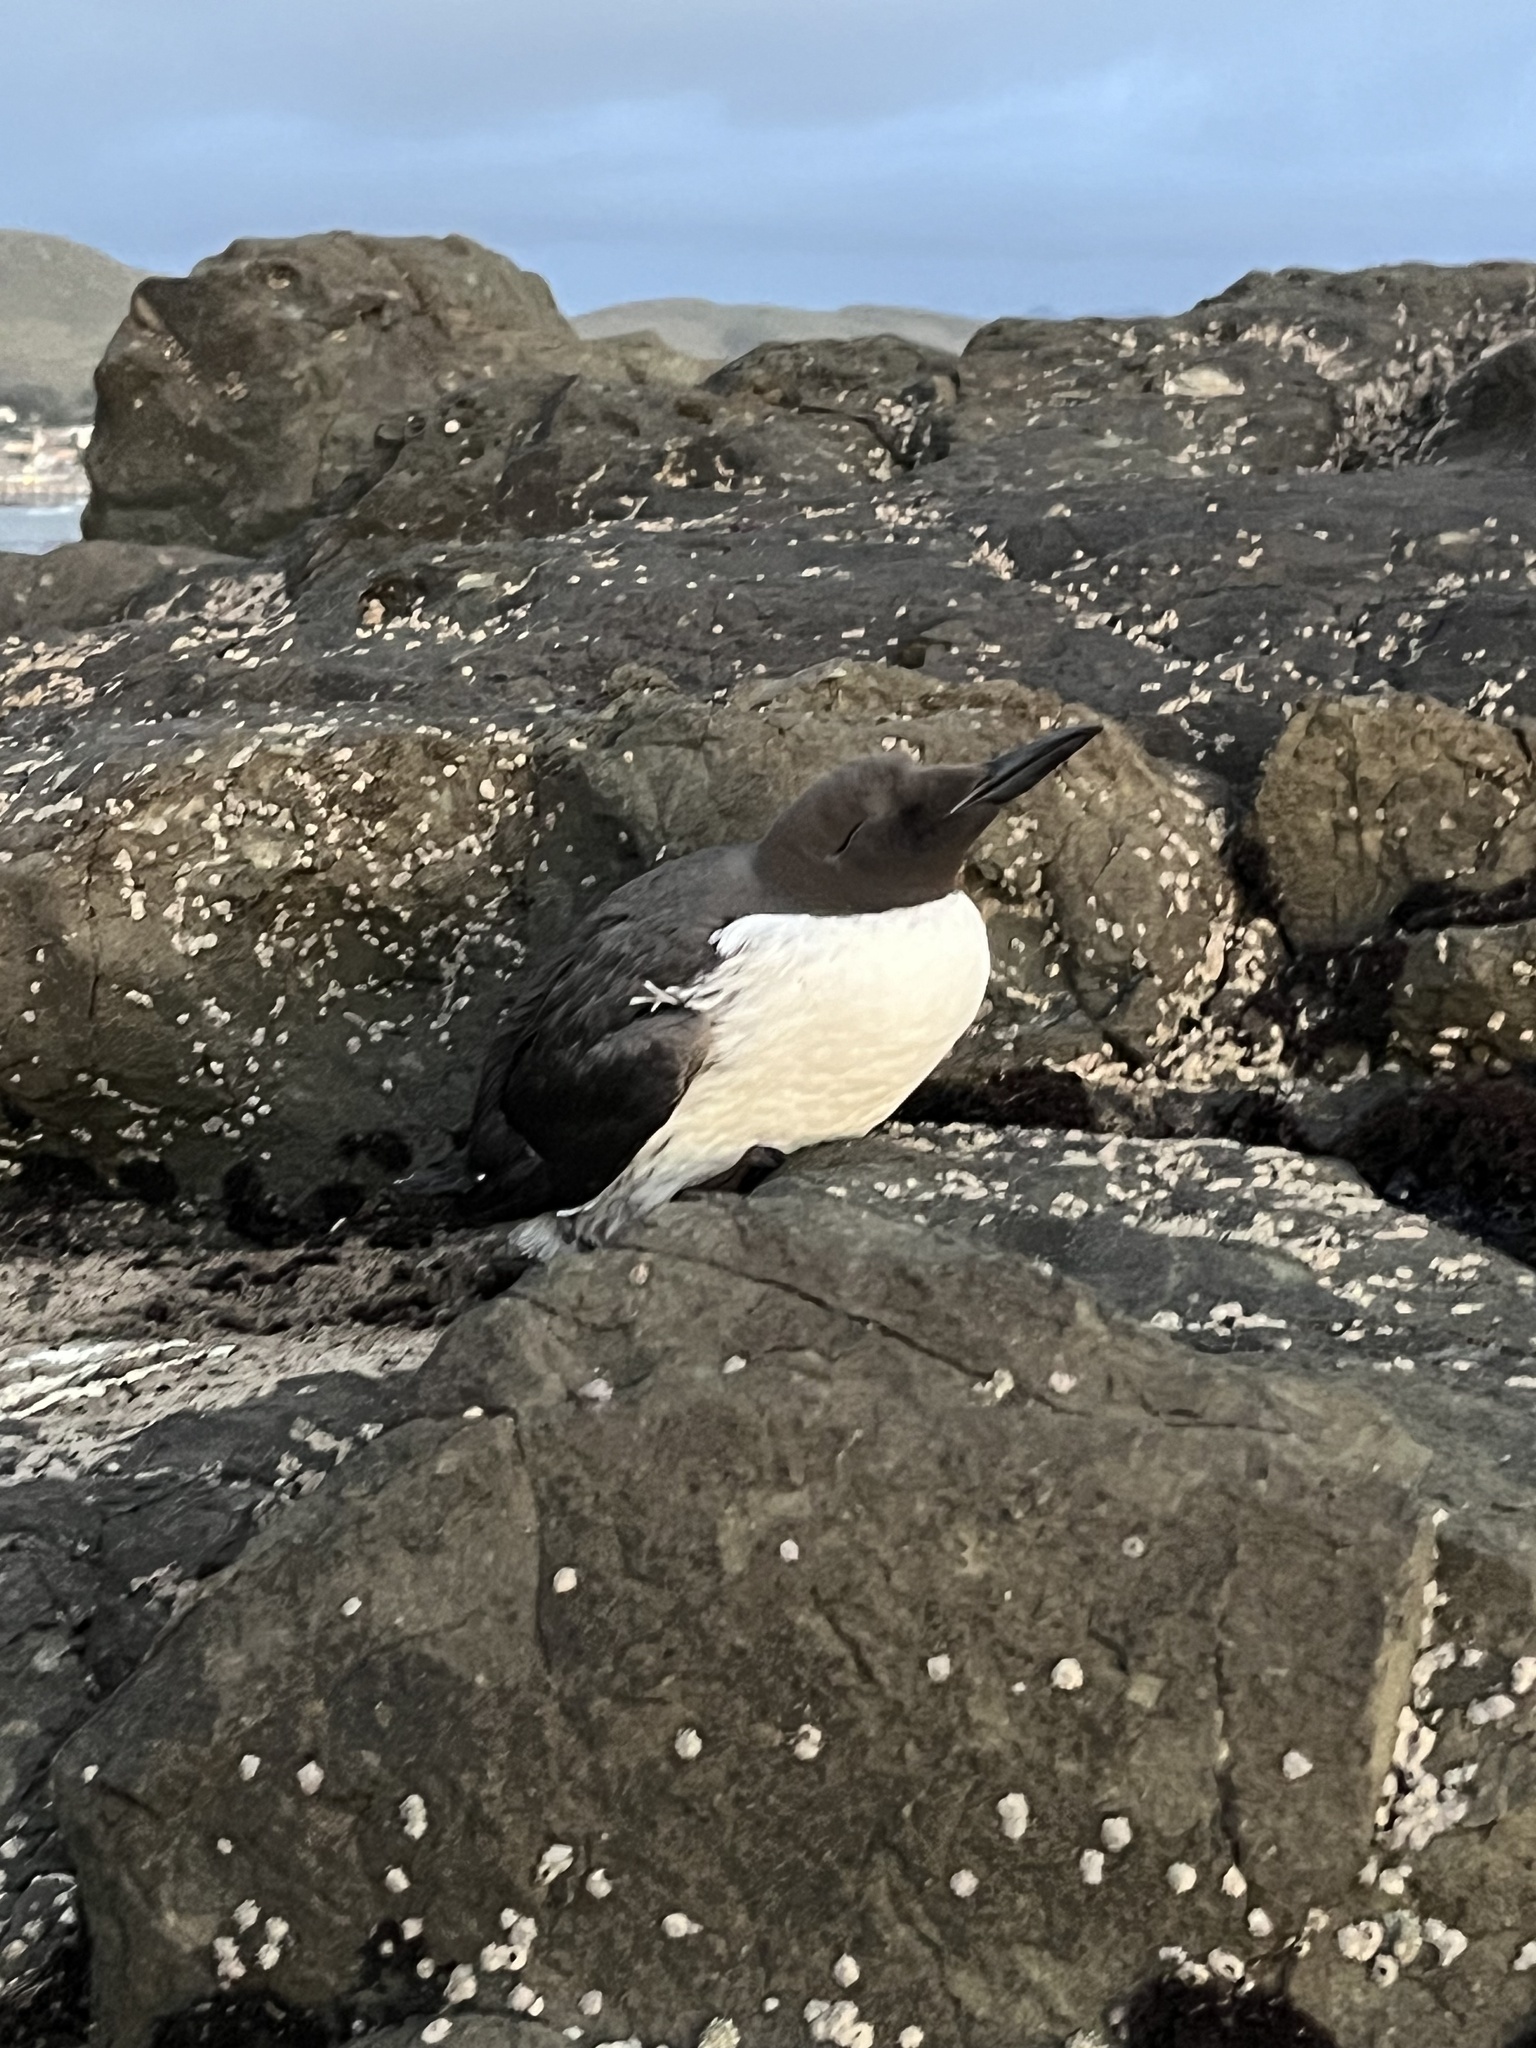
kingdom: Animalia
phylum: Chordata
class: Aves
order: Charadriiformes
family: Alcidae
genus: Uria
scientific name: Uria aalge
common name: Common murre
